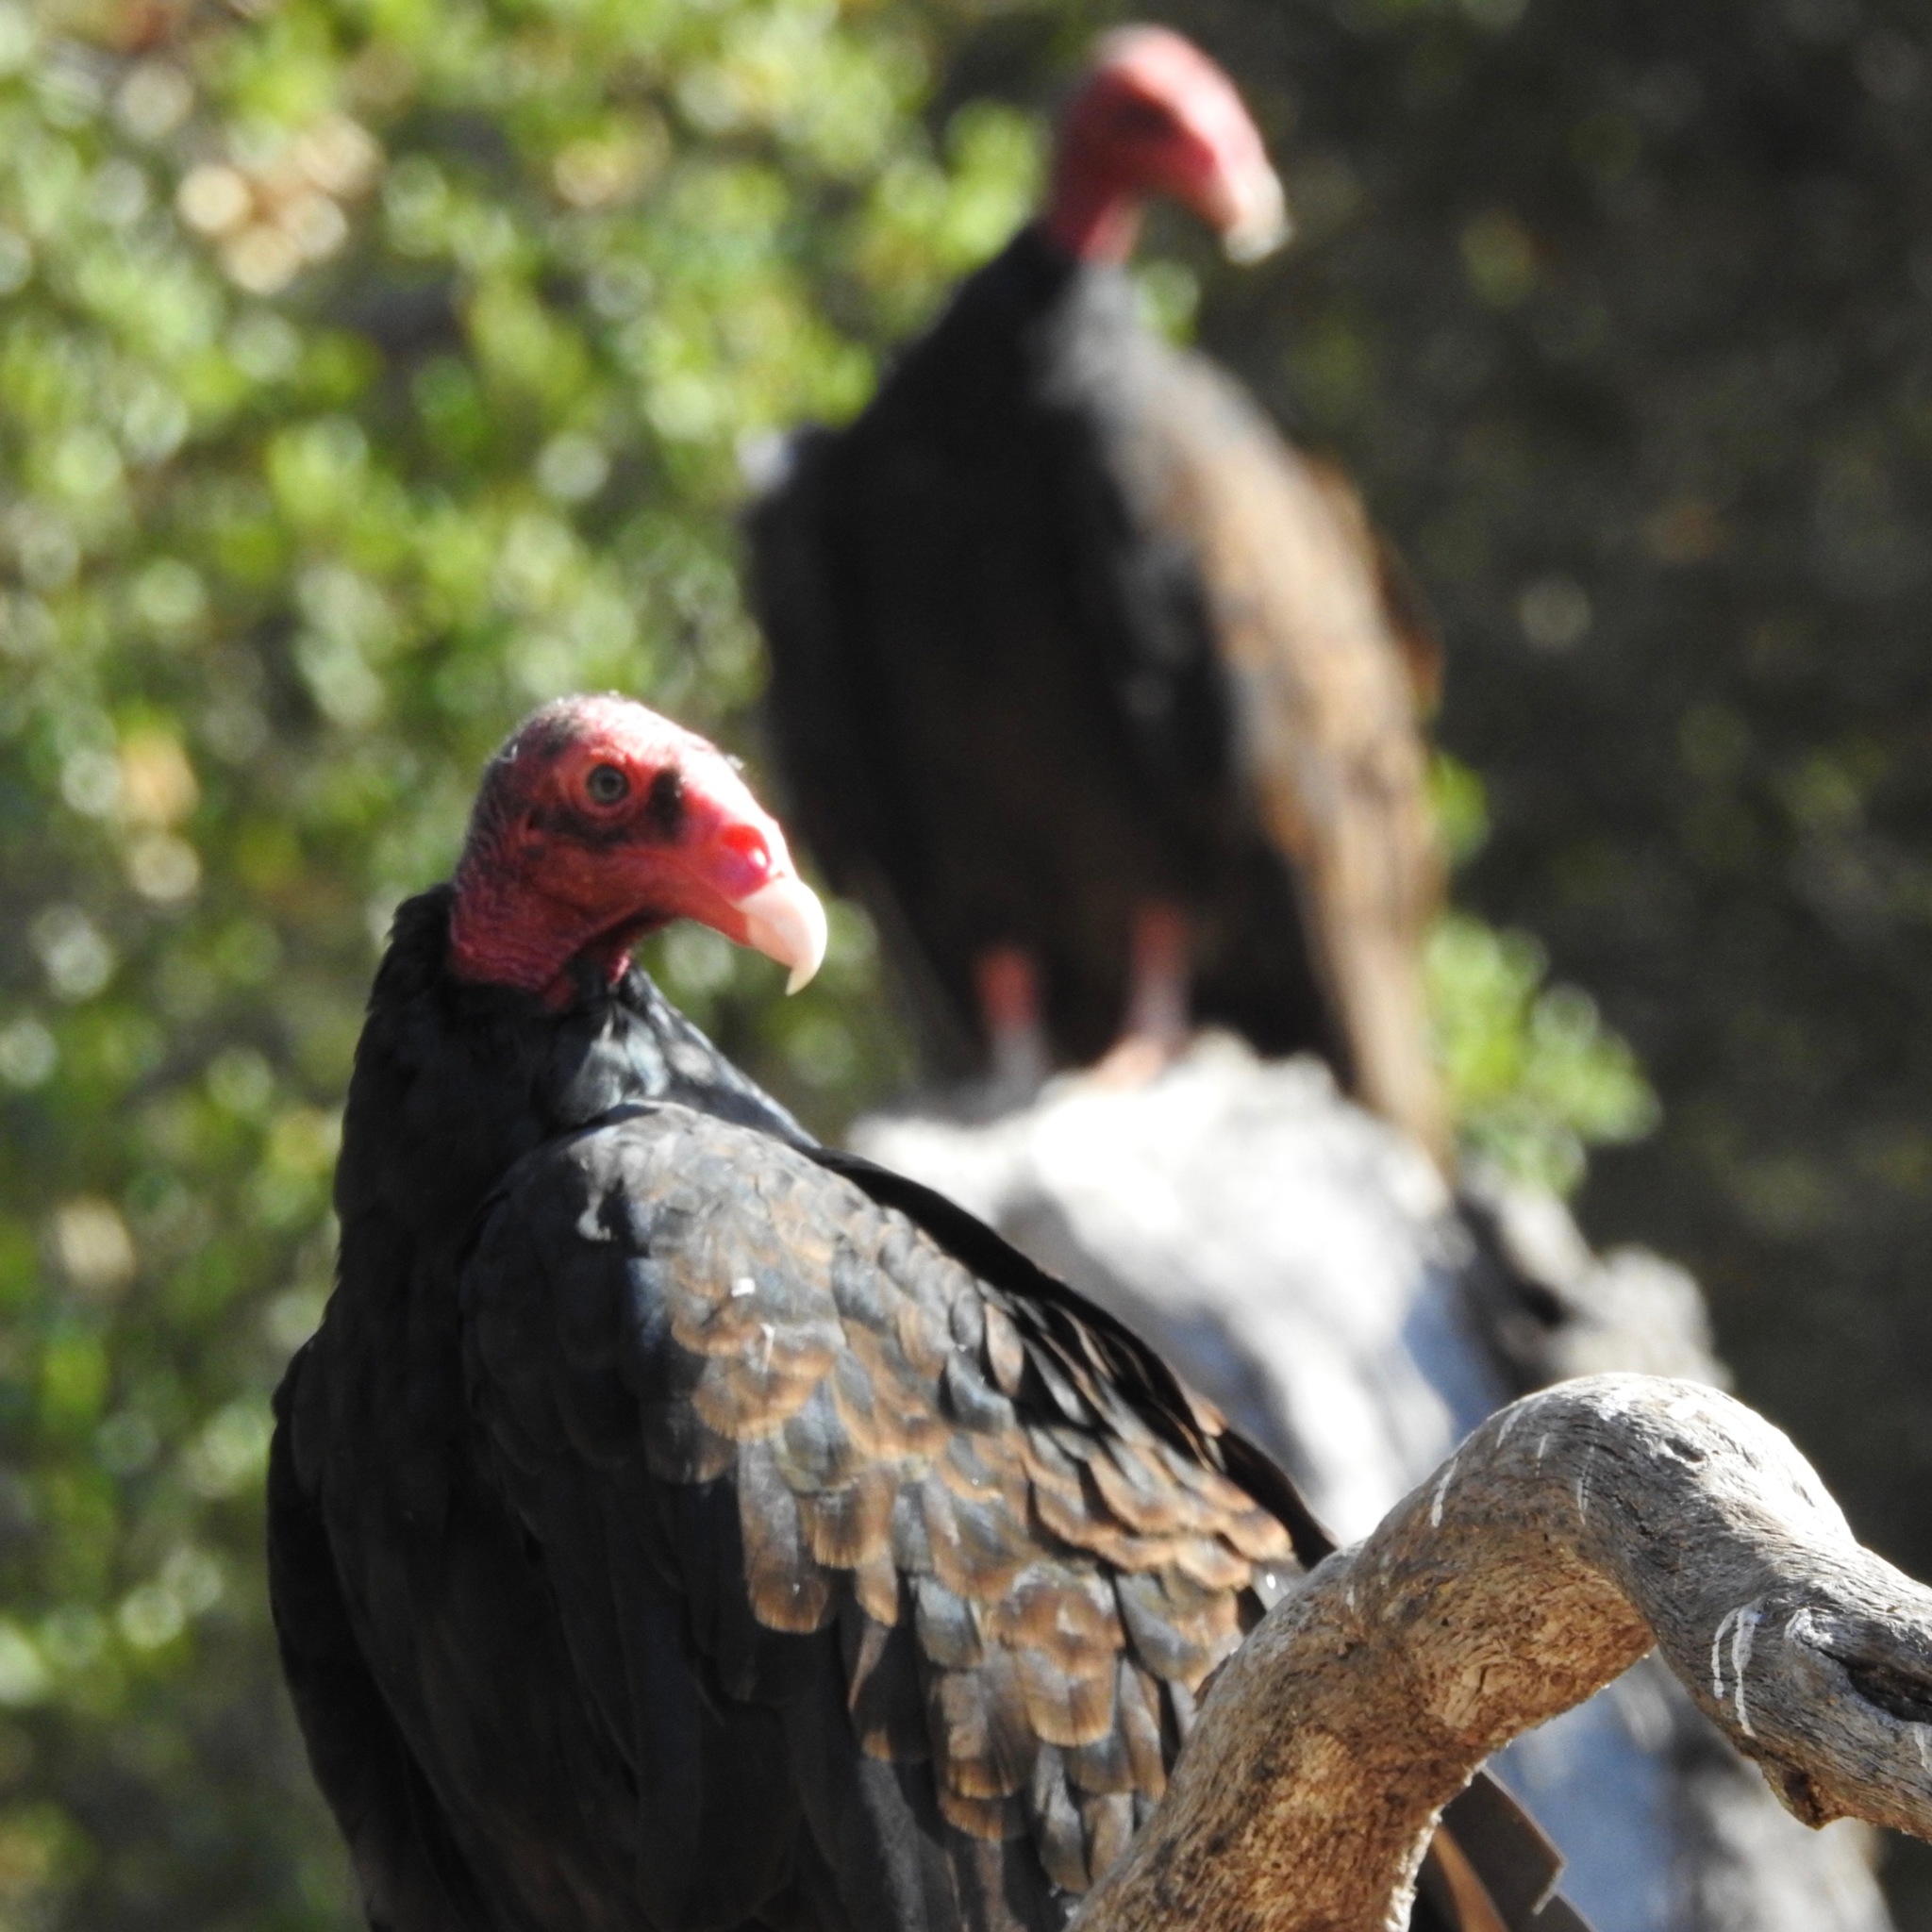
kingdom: Animalia
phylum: Chordata
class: Aves
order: Accipitriformes
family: Cathartidae
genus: Cathartes
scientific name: Cathartes aura
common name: Turkey vulture
